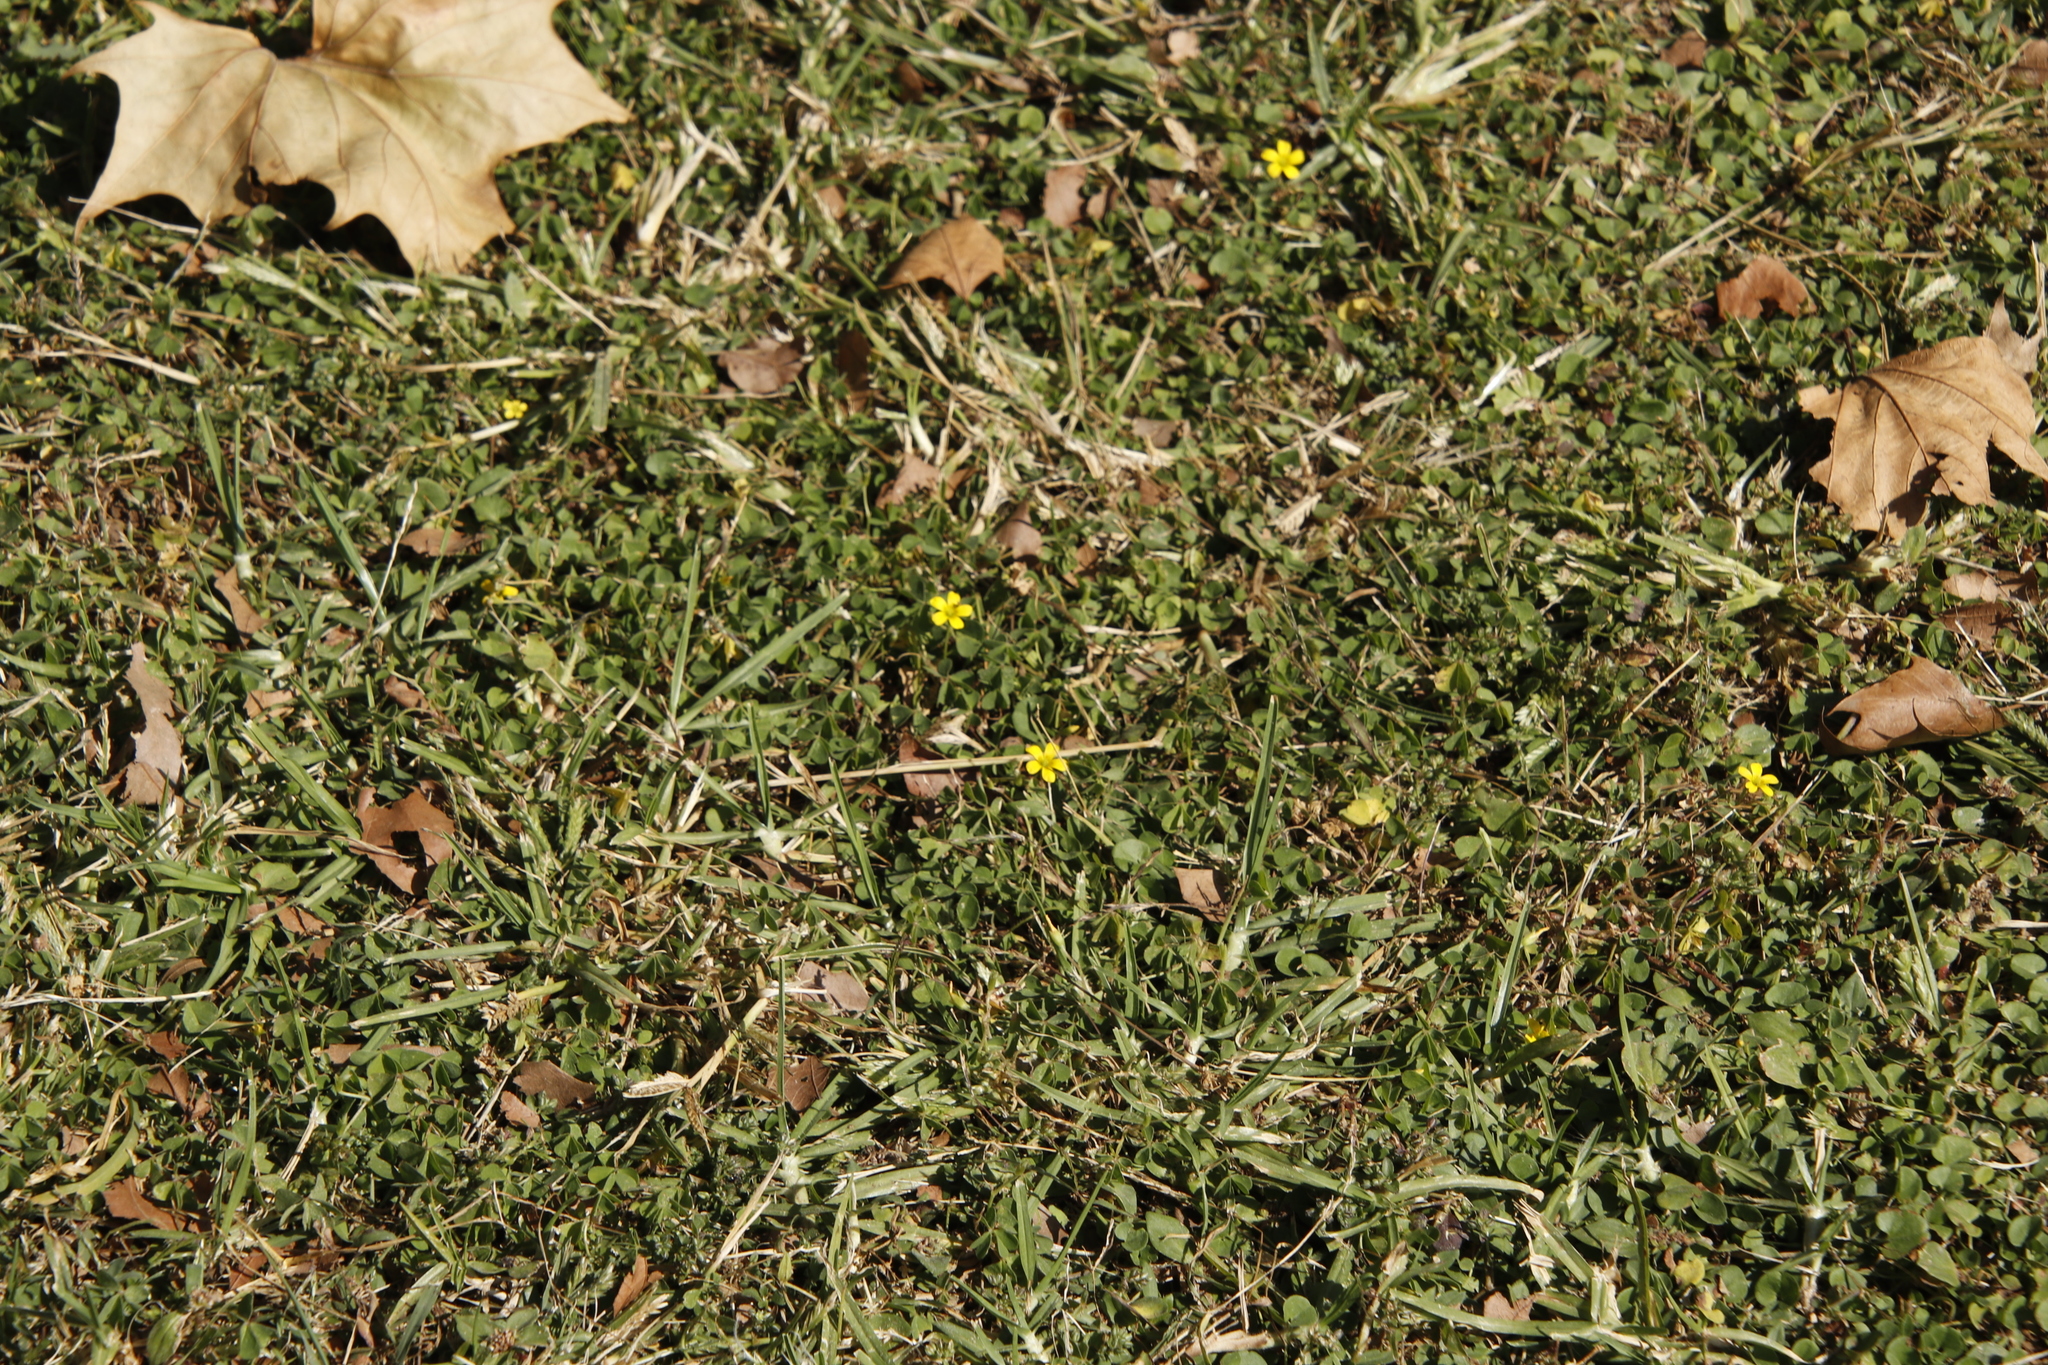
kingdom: Plantae
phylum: Tracheophyta
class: Magnoliopsida
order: Oxalidales
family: Oxalidaceae
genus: Oxalis
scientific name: Oxalis corniculata
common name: Procumbent yellow-sorrel
